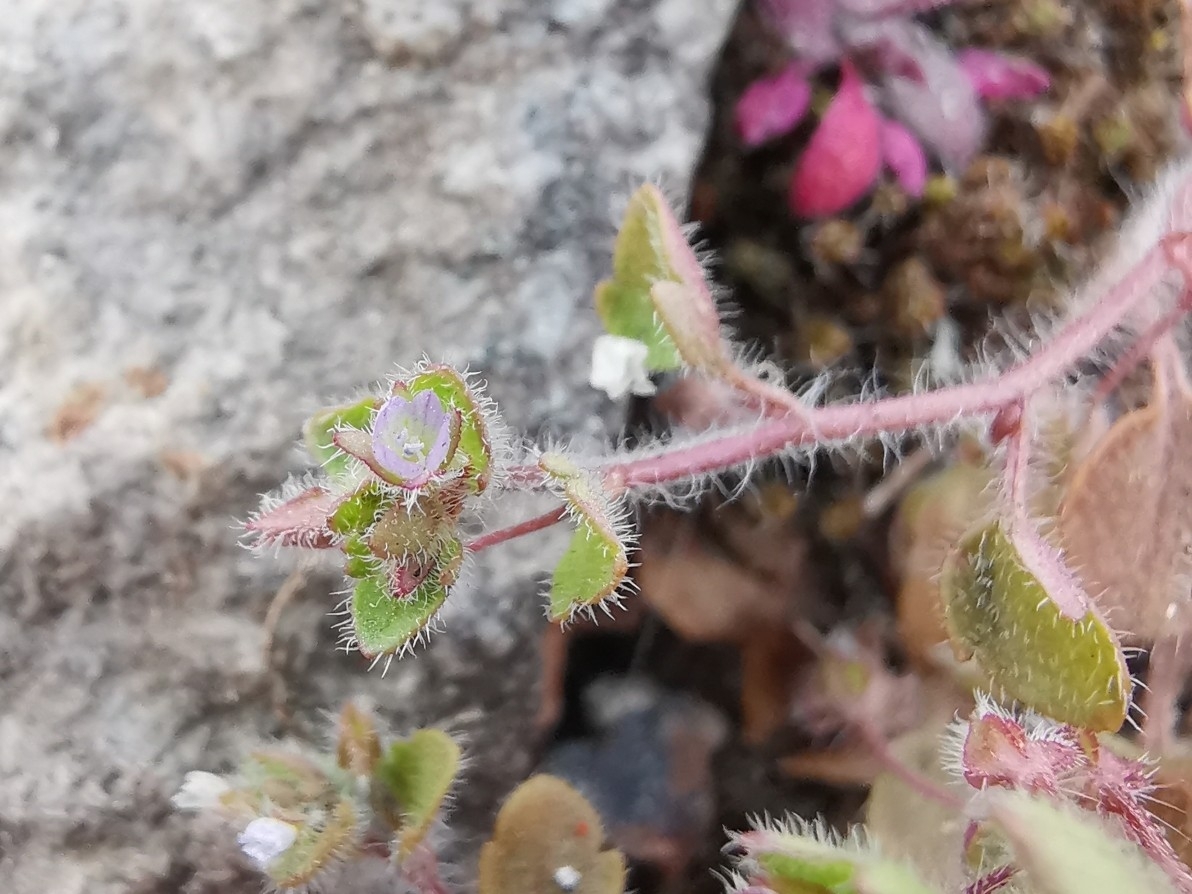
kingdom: Plantae
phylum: Tracheophyta
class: Magnoliopsida
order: Lamiales
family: Plantaginaceae
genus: Veronica
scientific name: Veronica sublobata
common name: False ivy-leaved speedwell
